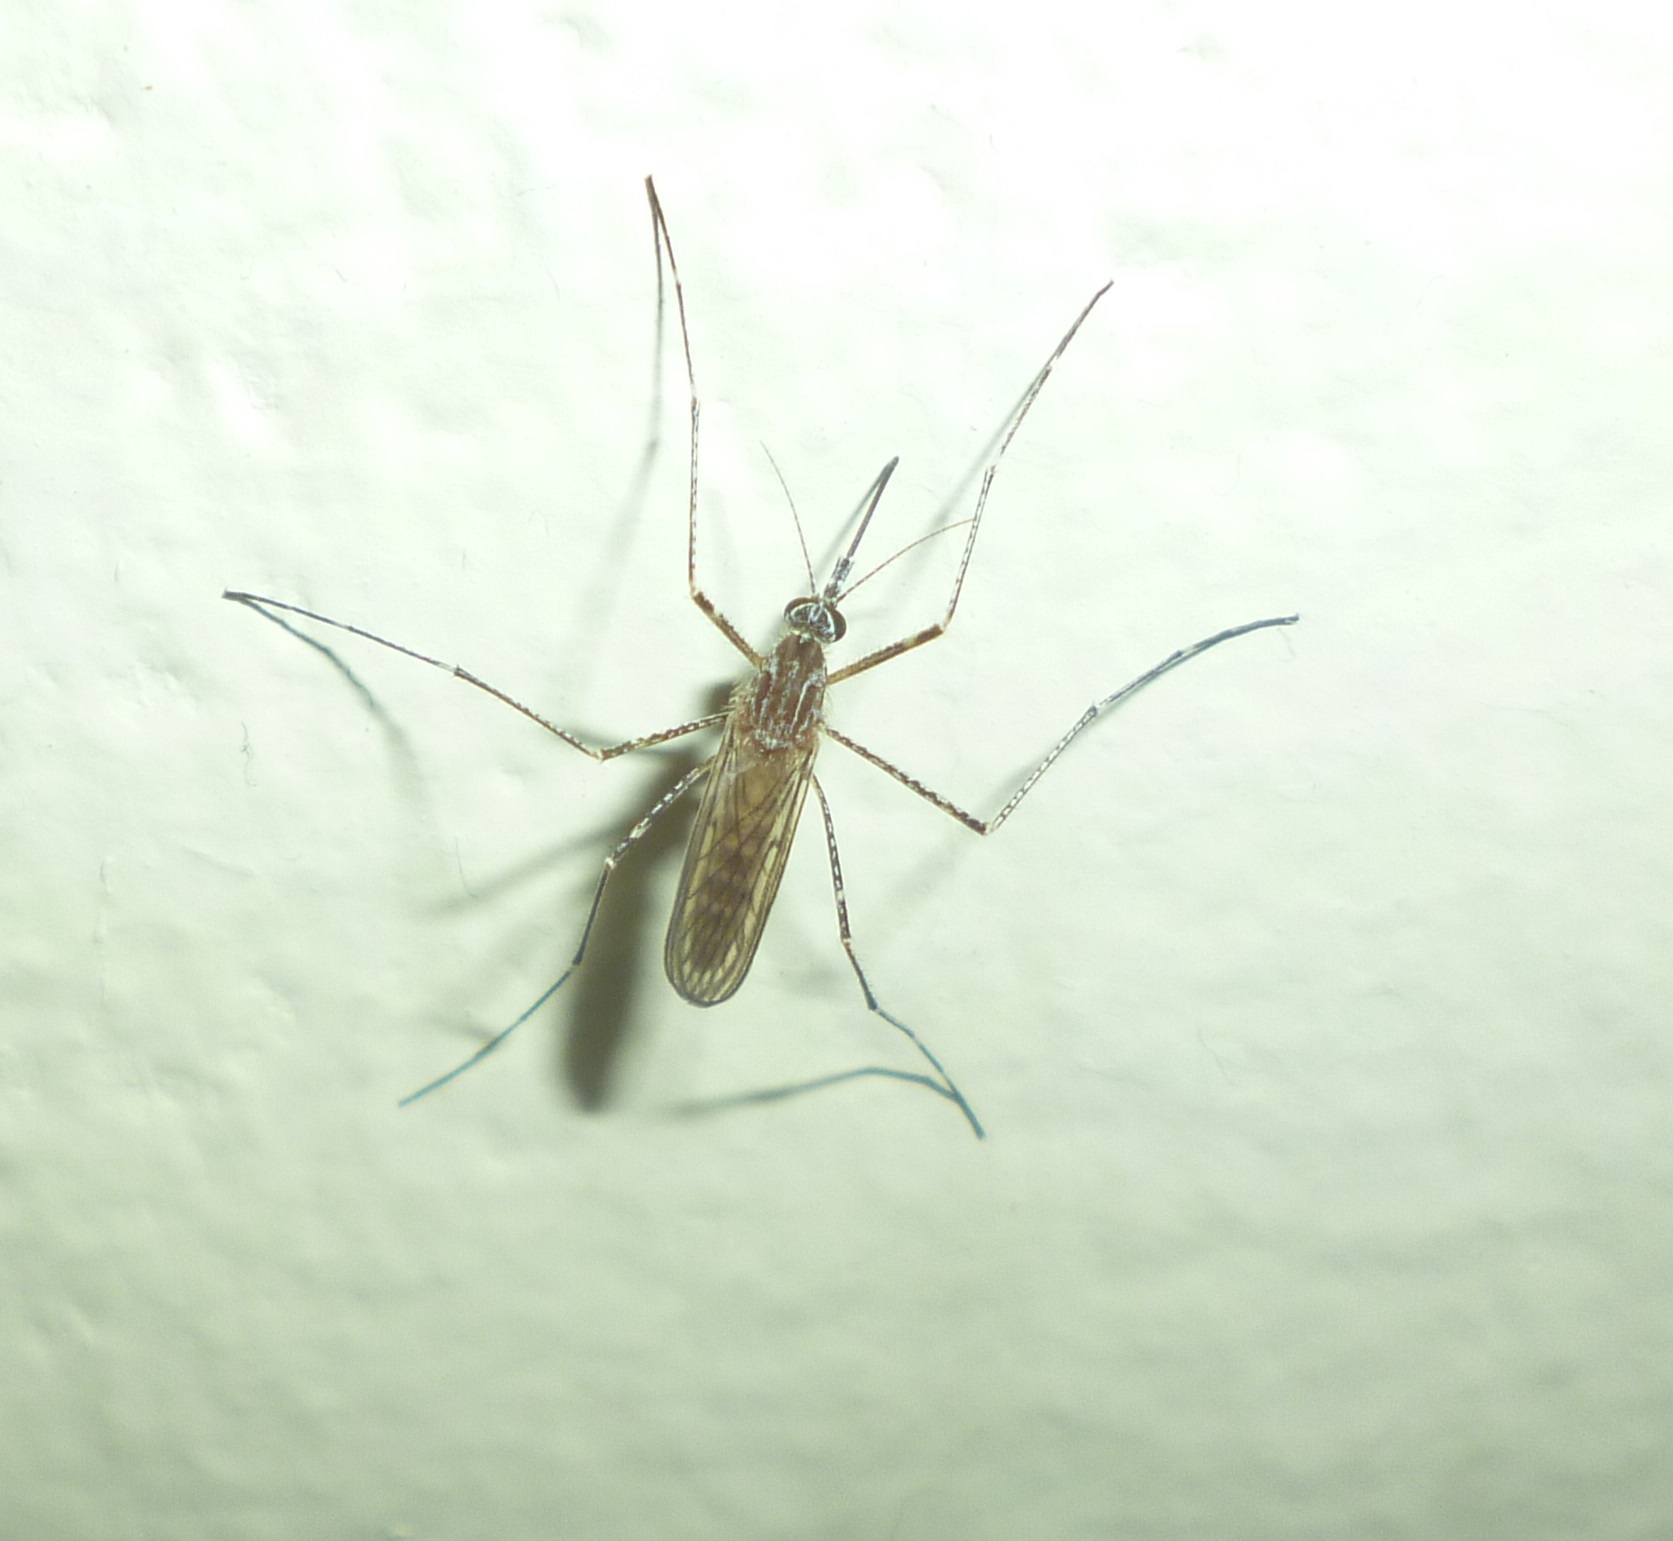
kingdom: Animalia
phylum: Arthropoda
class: Insecta
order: Diptera
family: Culicidae
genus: Culiseta
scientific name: Culiseta longiareolata
